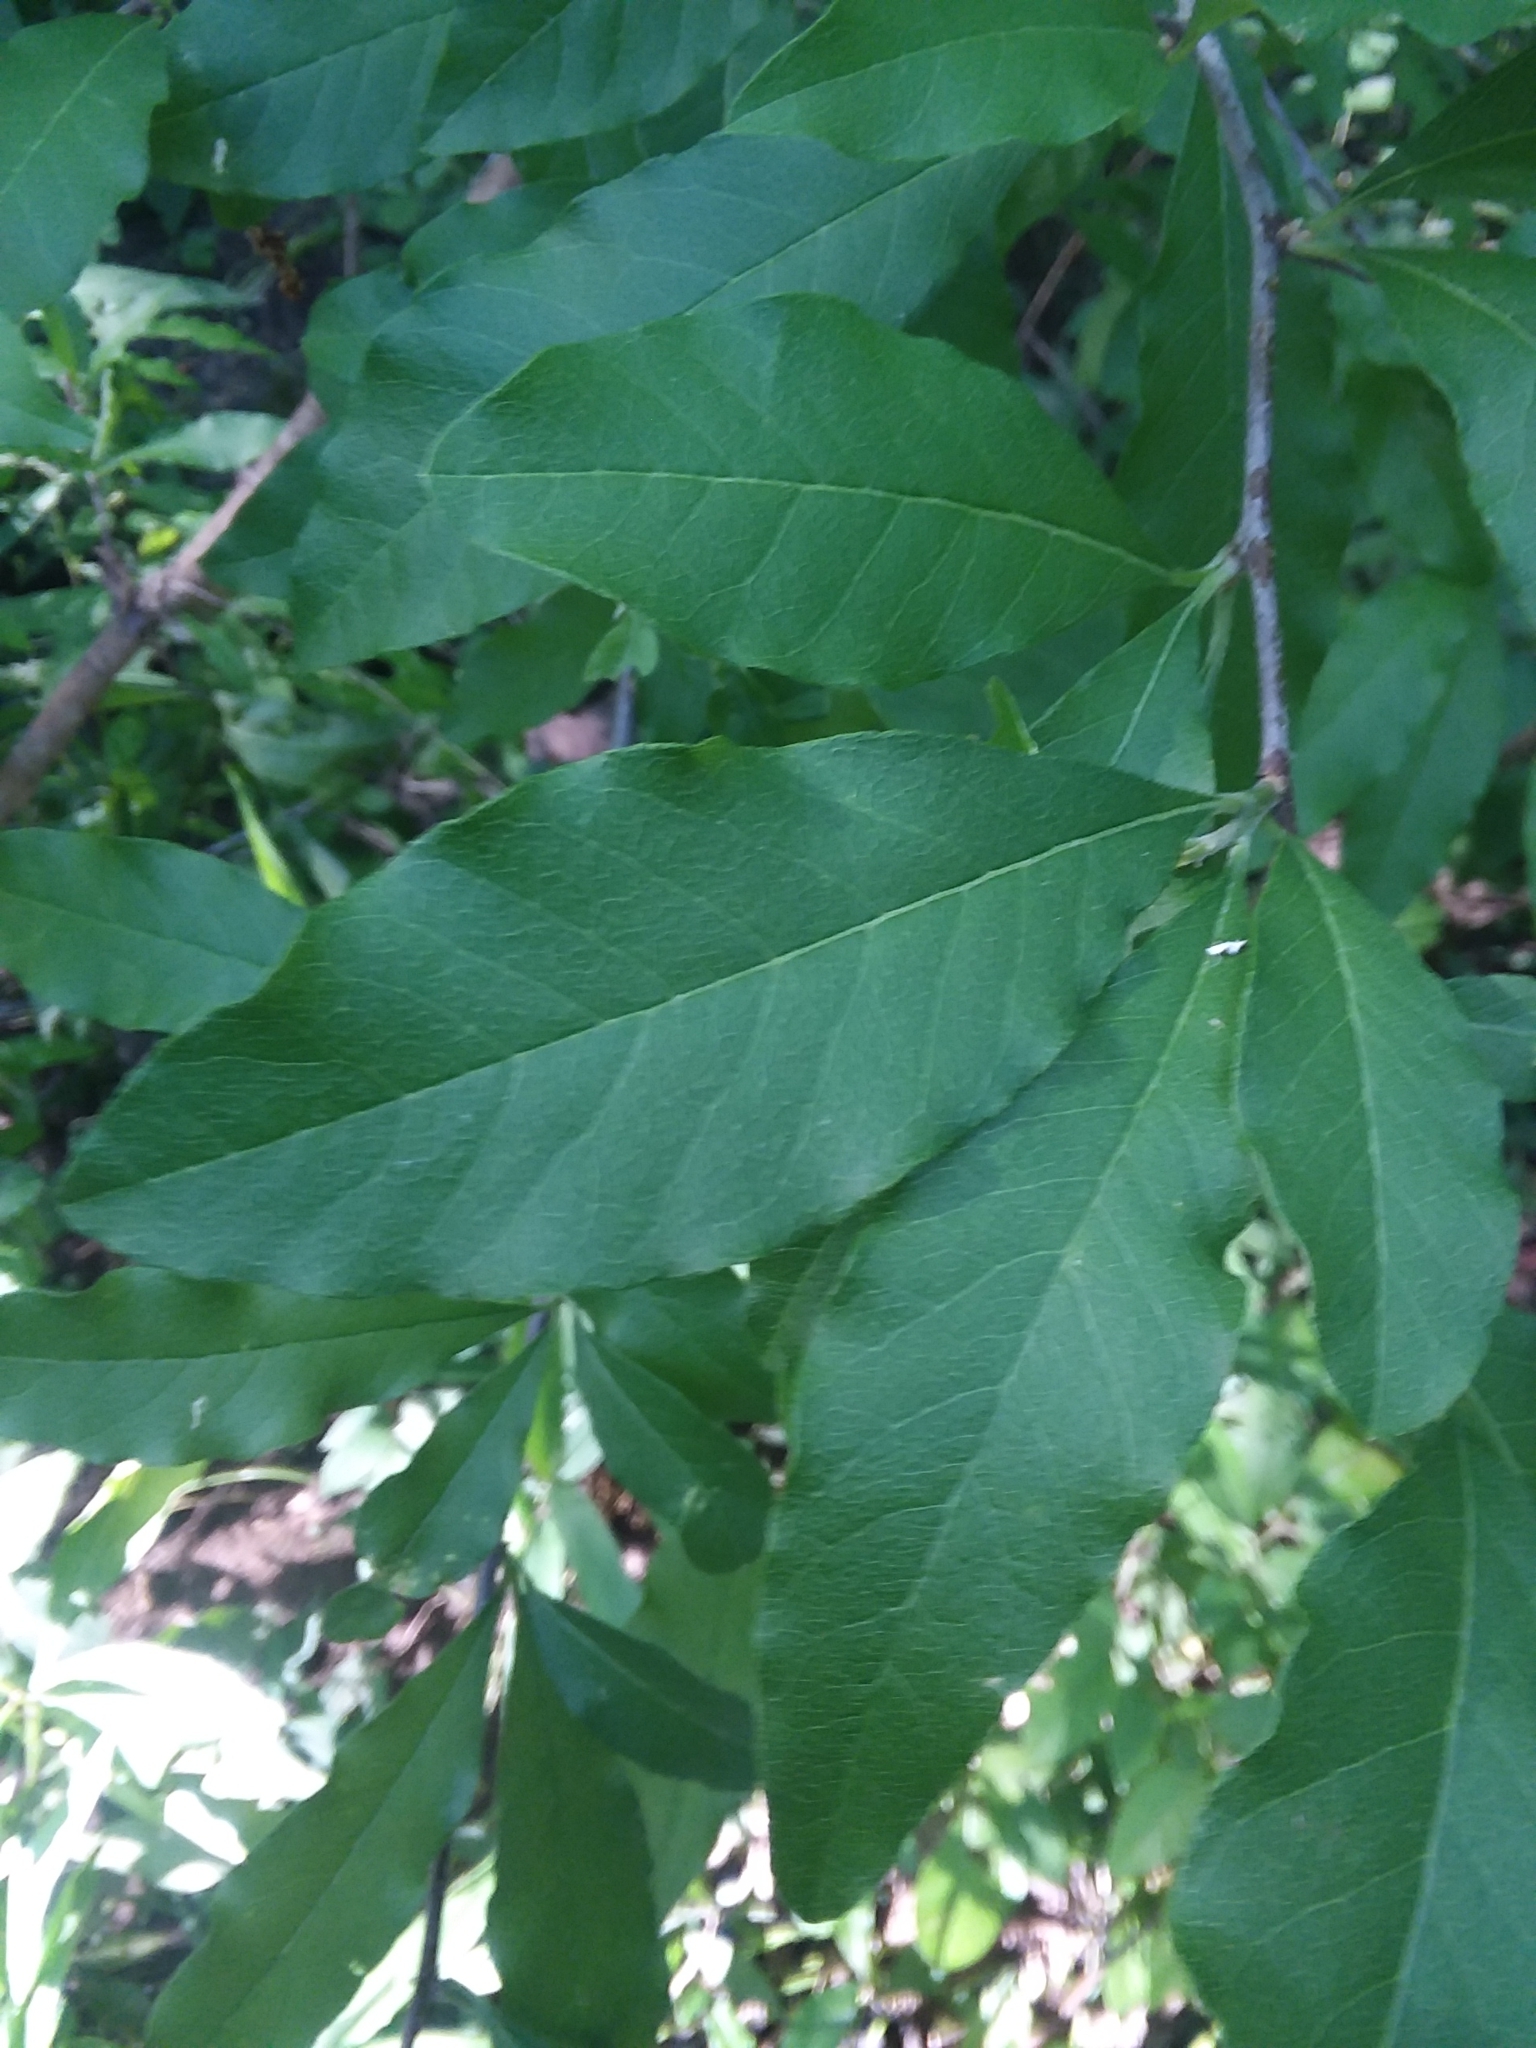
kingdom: Plantae
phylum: Tracheophyta
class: Magnoliopsida
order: Ericales
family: Sapotaceae
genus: Sideroxylon
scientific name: Sideroxylon lycioides
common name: Buckthorn bumelia
